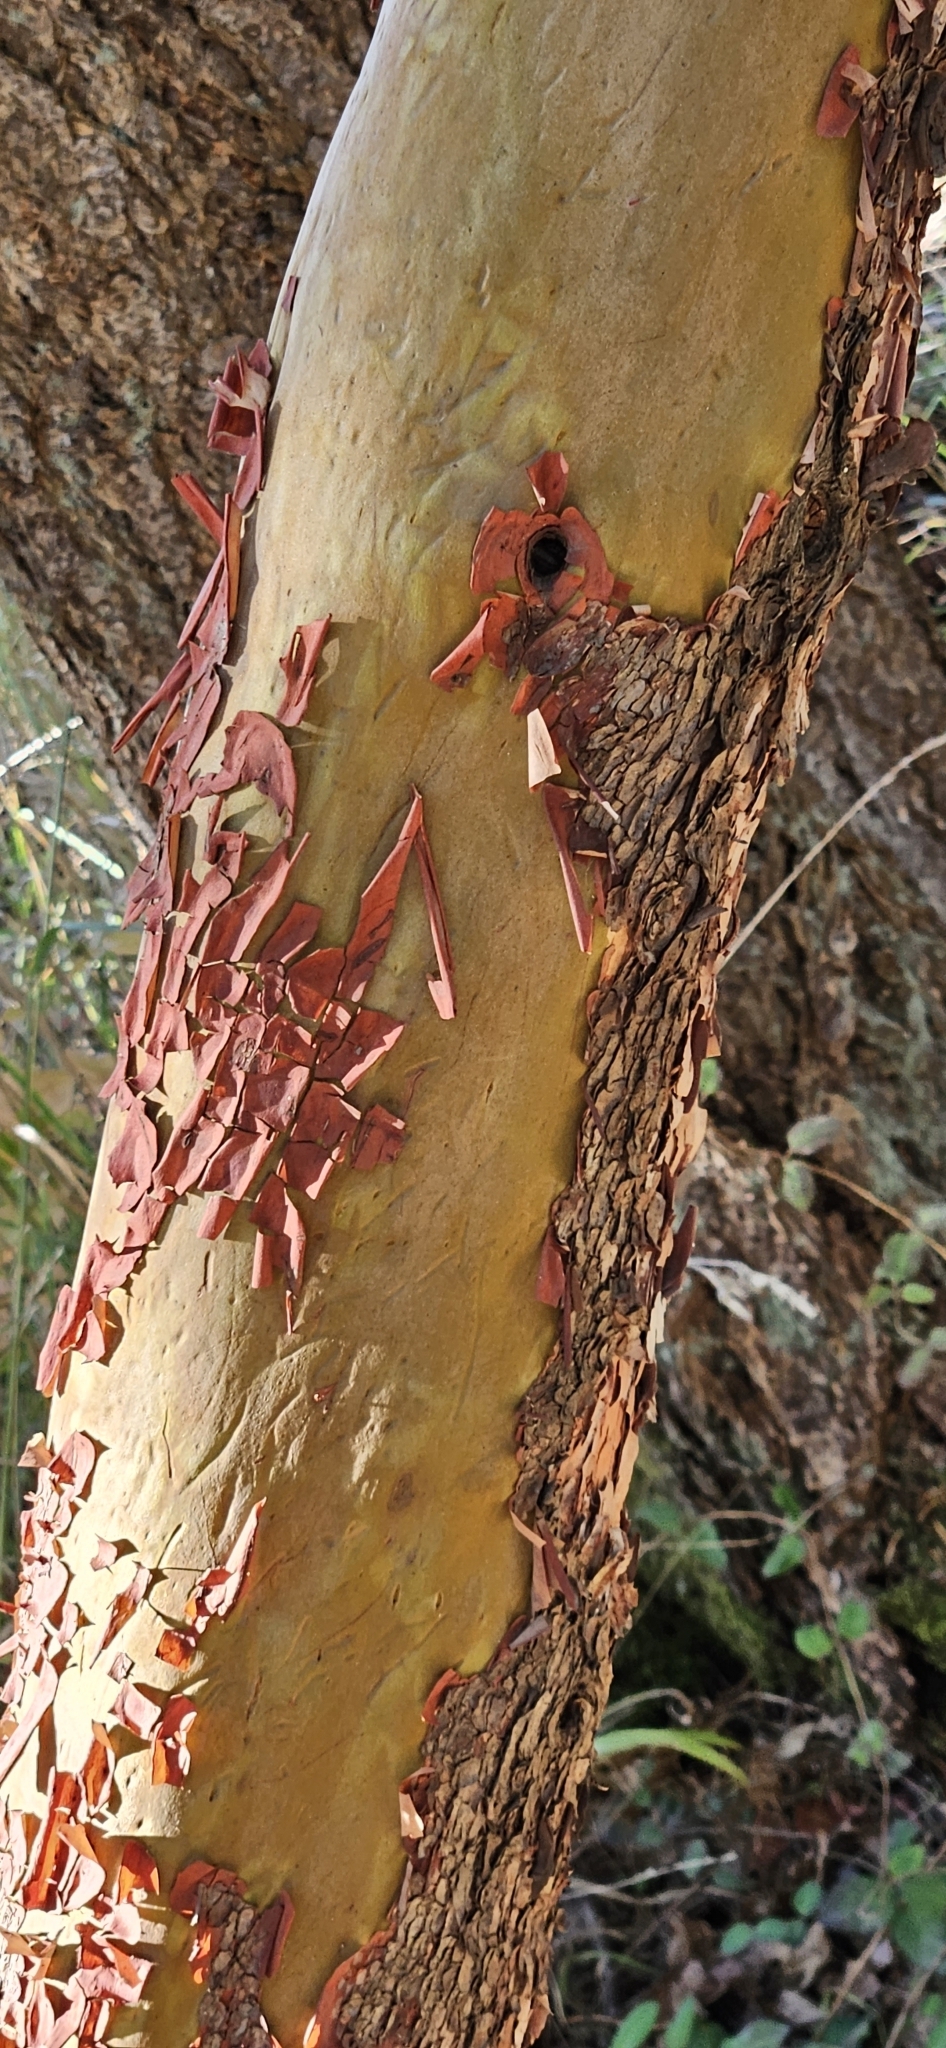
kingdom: Plantae
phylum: Tracheophyta
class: Magnoliopsida
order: Ericales
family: Ericaceae
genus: Arbutus
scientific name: Arbutus menziesii
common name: Pacific madrone
